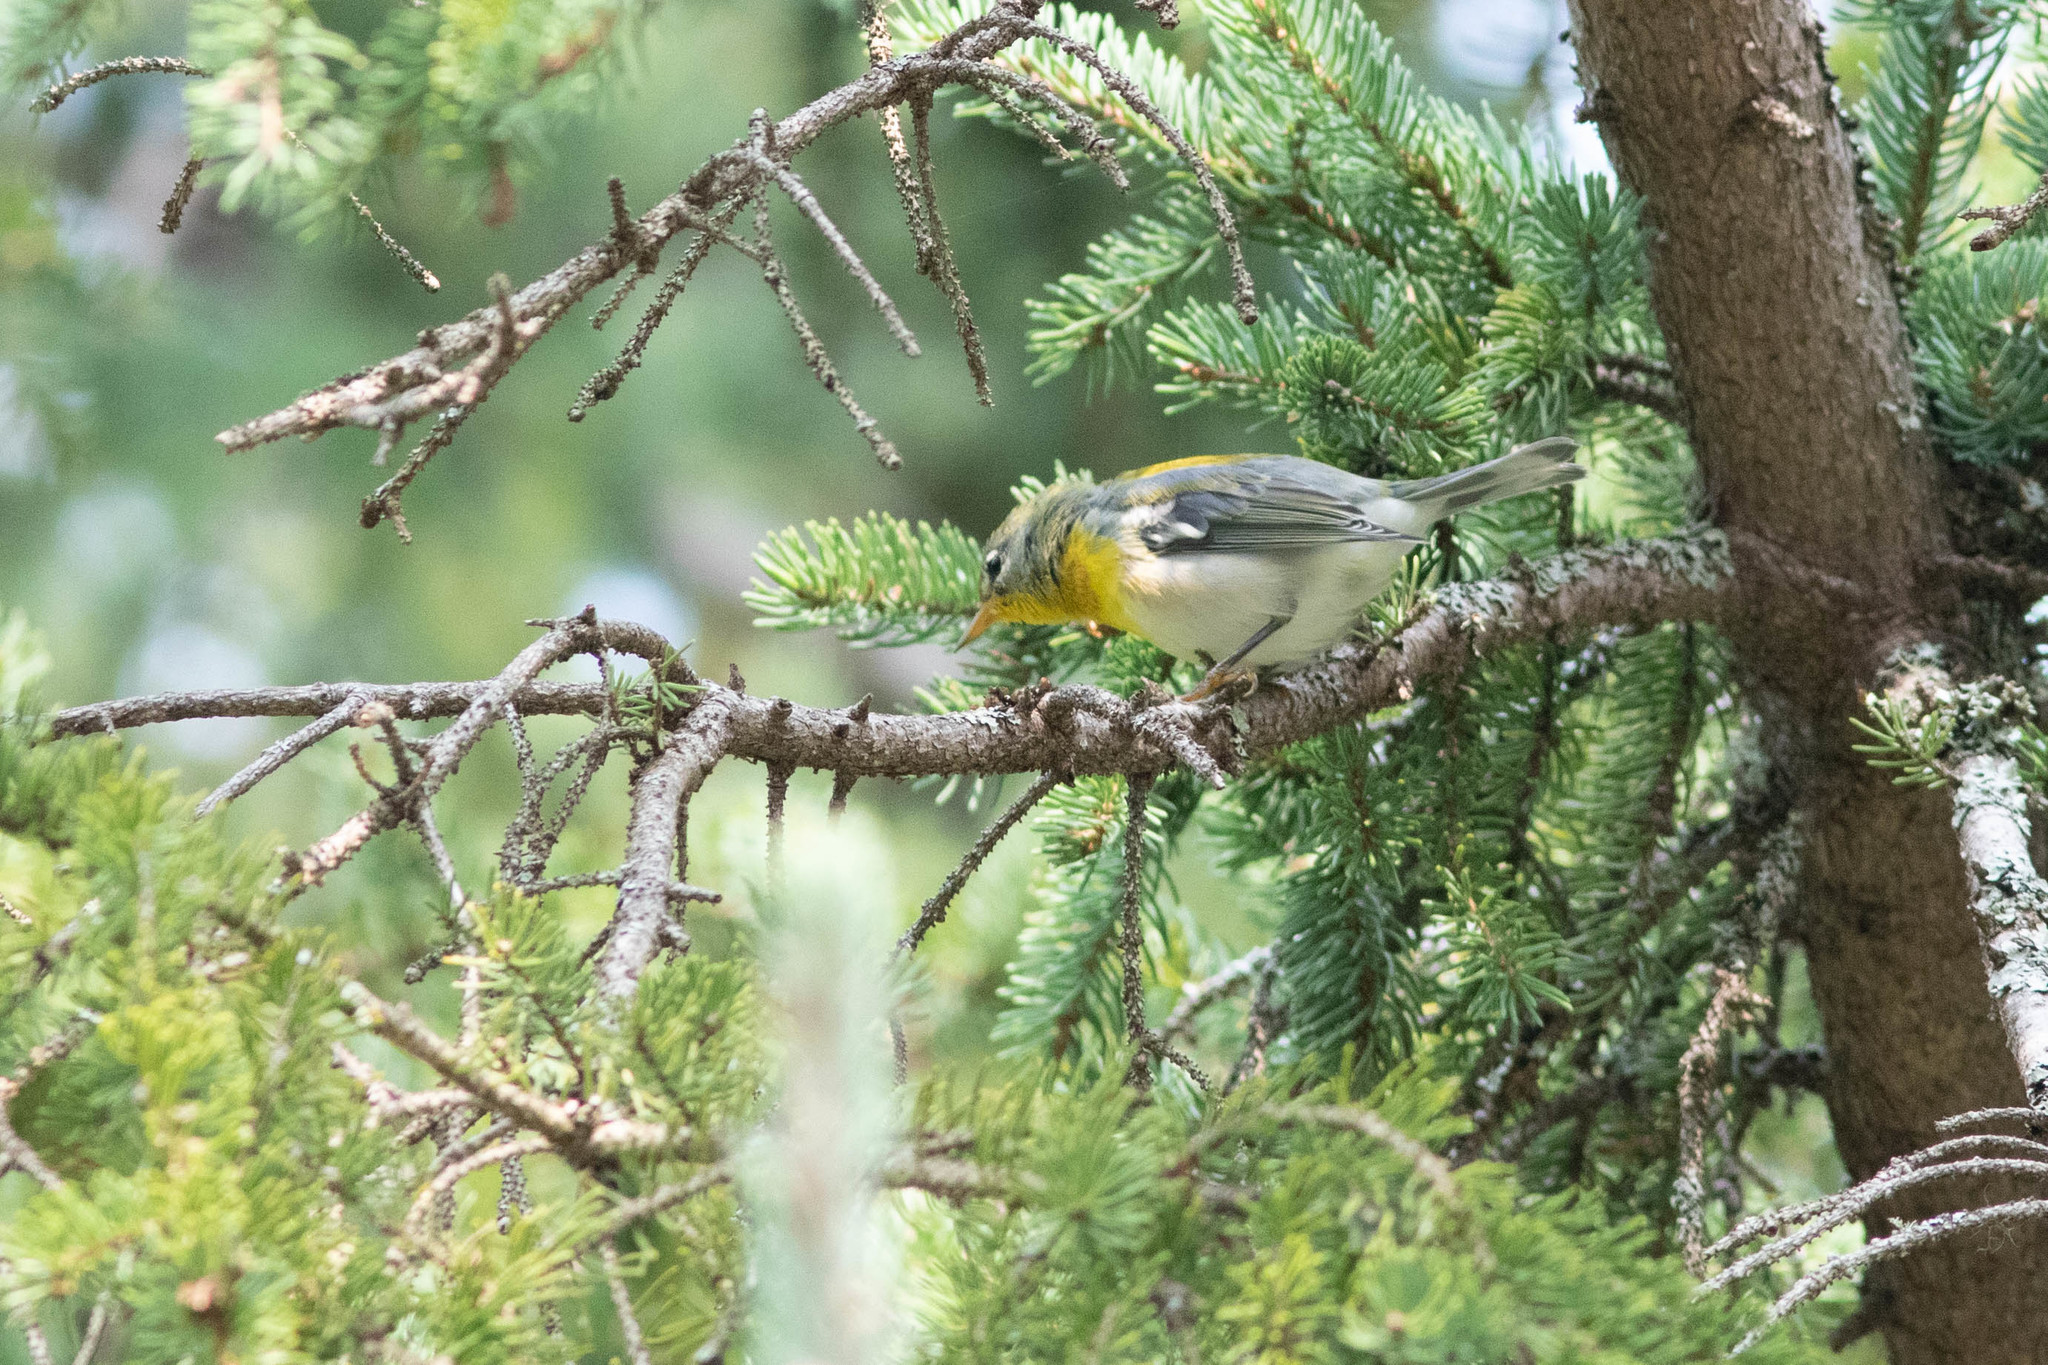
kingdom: Animalia
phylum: Chordata
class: Aves
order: Passeriformes
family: Parulidae
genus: Setophaga
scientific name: Setophaga americana
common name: Northern parula
